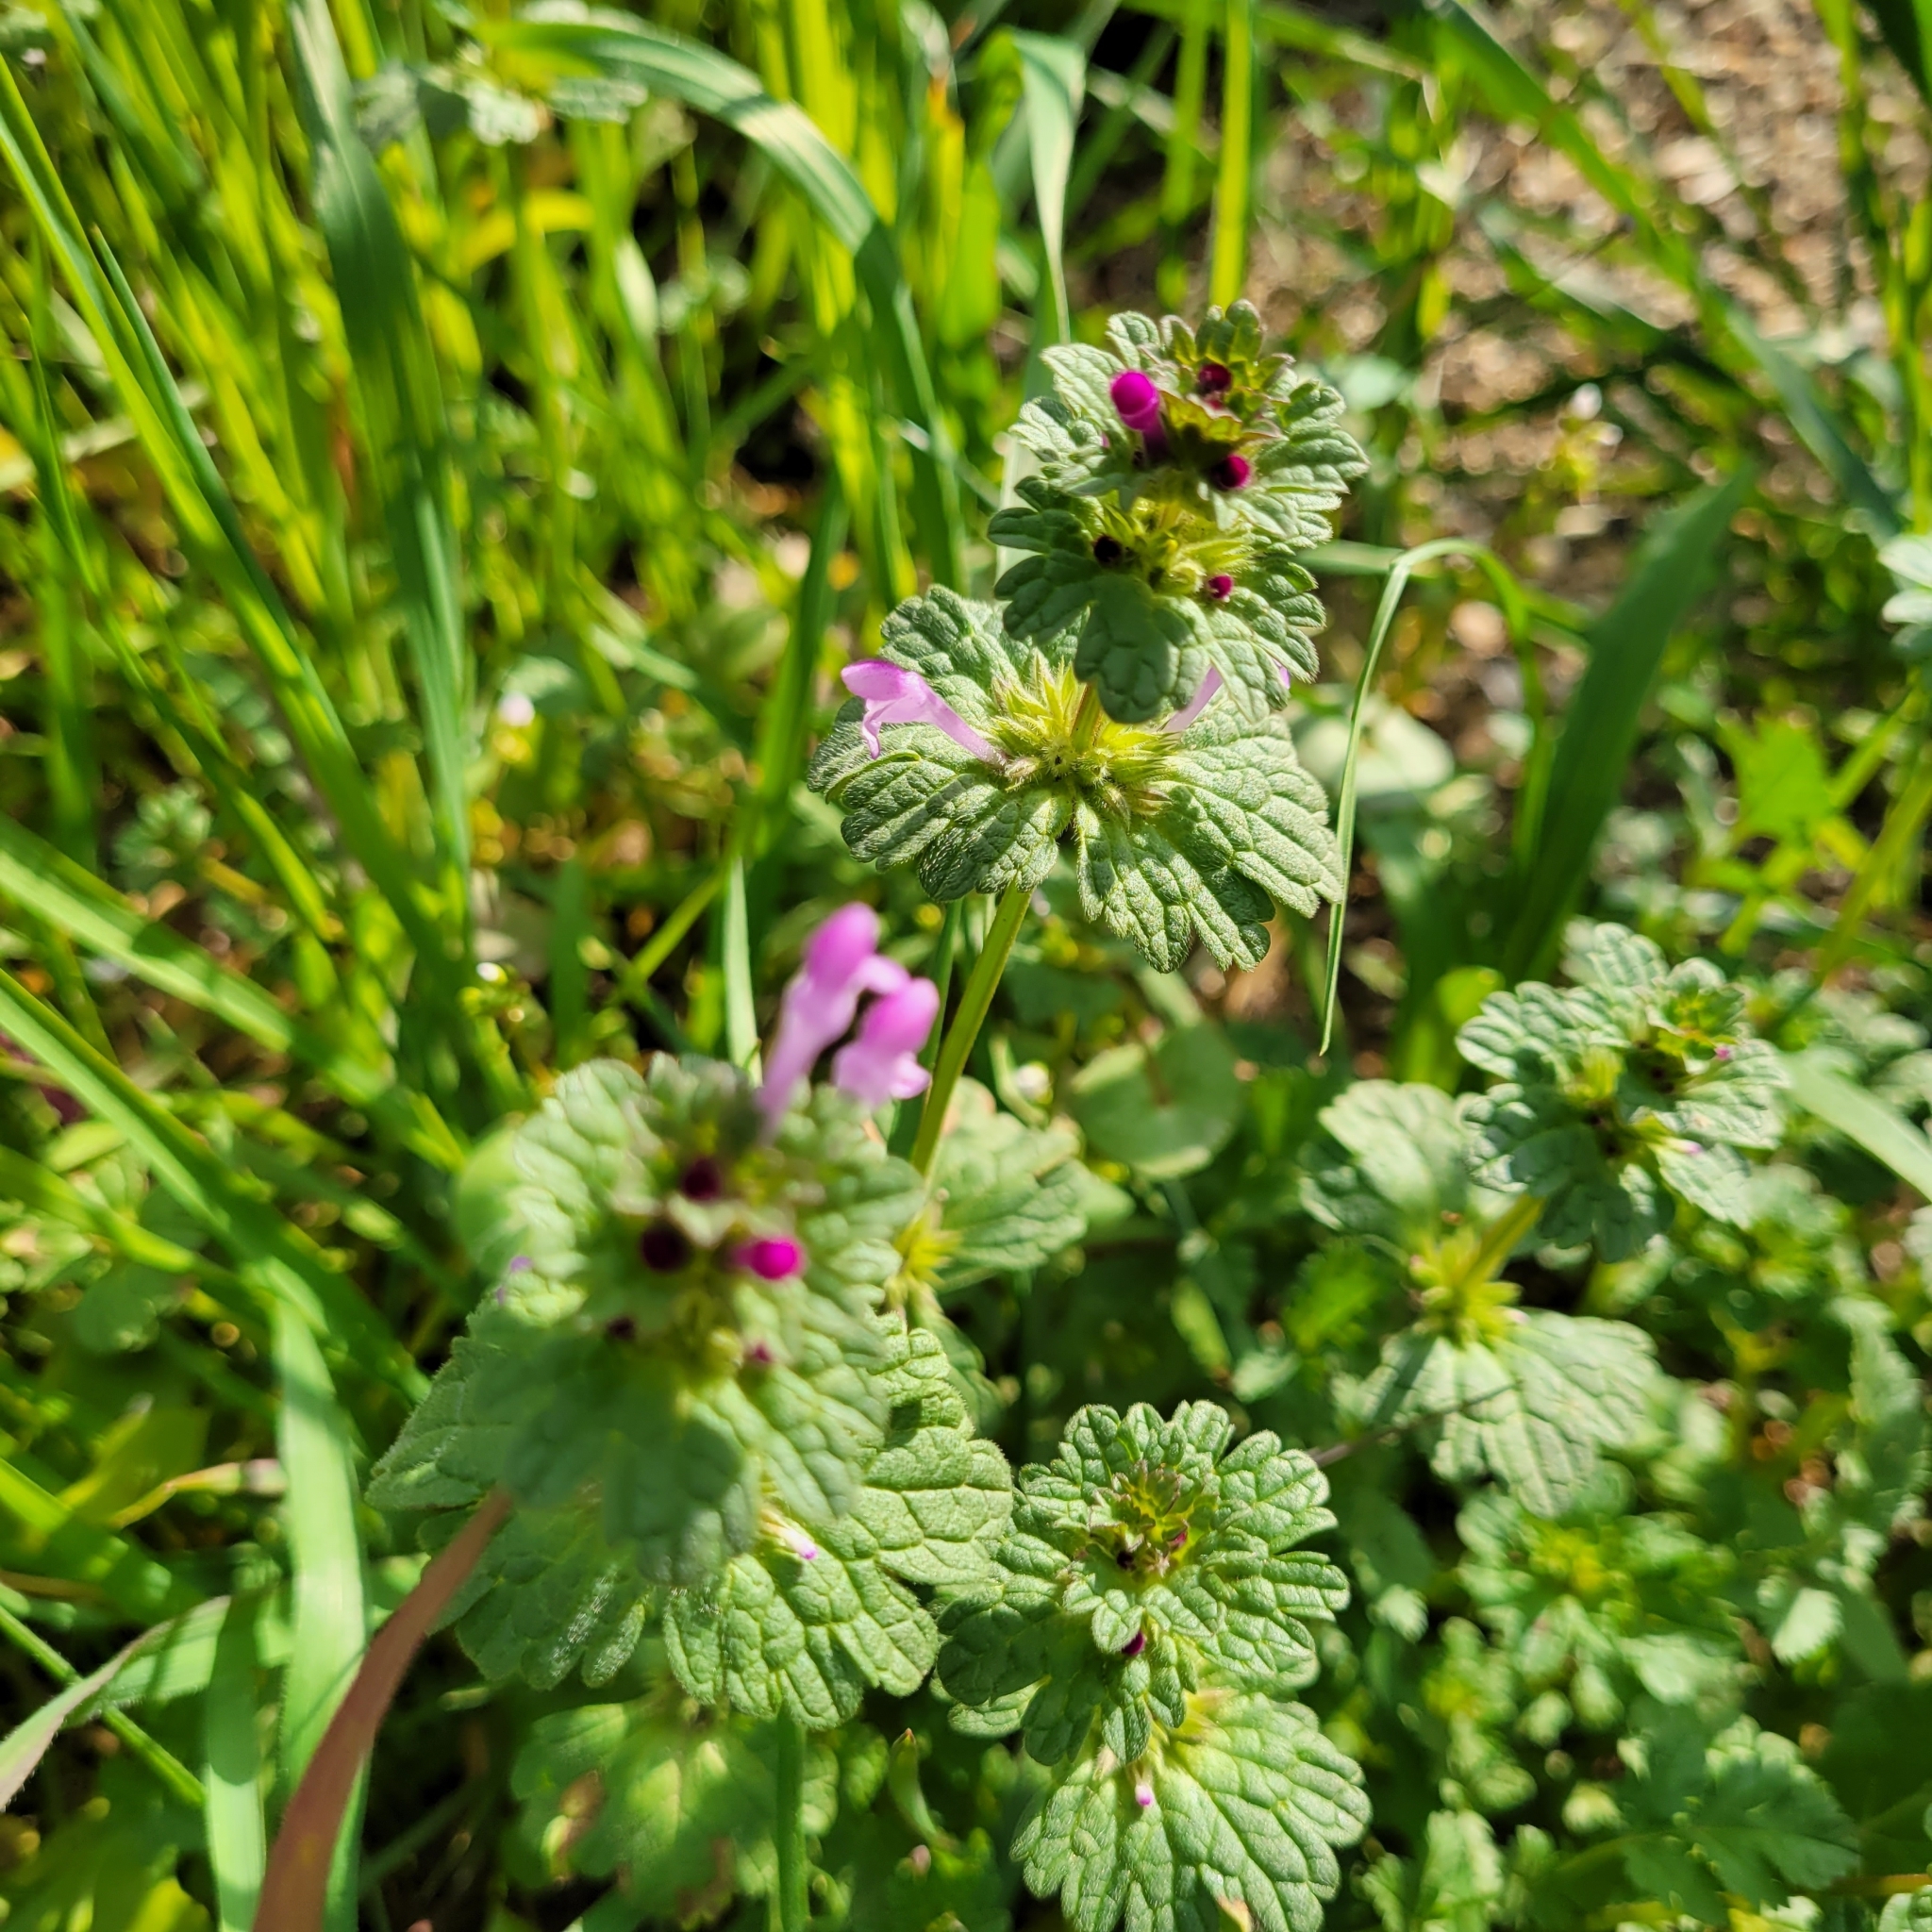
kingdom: Plantae
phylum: Tracheophyta
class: Magnoliopsida
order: Lamiales
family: Lamiaceae
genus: Lamium
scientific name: Lamium amplexicaule
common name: Henbit dead-nettle
